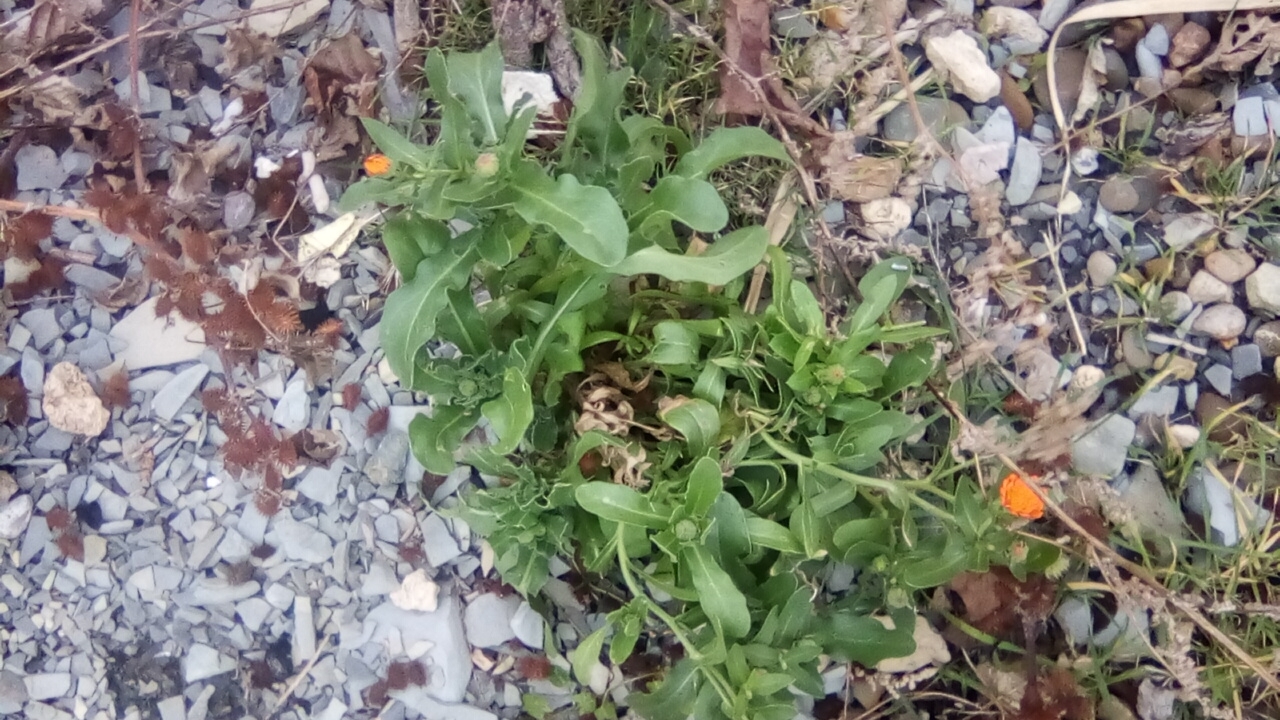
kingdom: Plantae
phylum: Tracheophyta
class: Magnoliopsida
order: Asterales
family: Asteraceae
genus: Calendula
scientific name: Calendula officinalis
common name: Pot marigold
